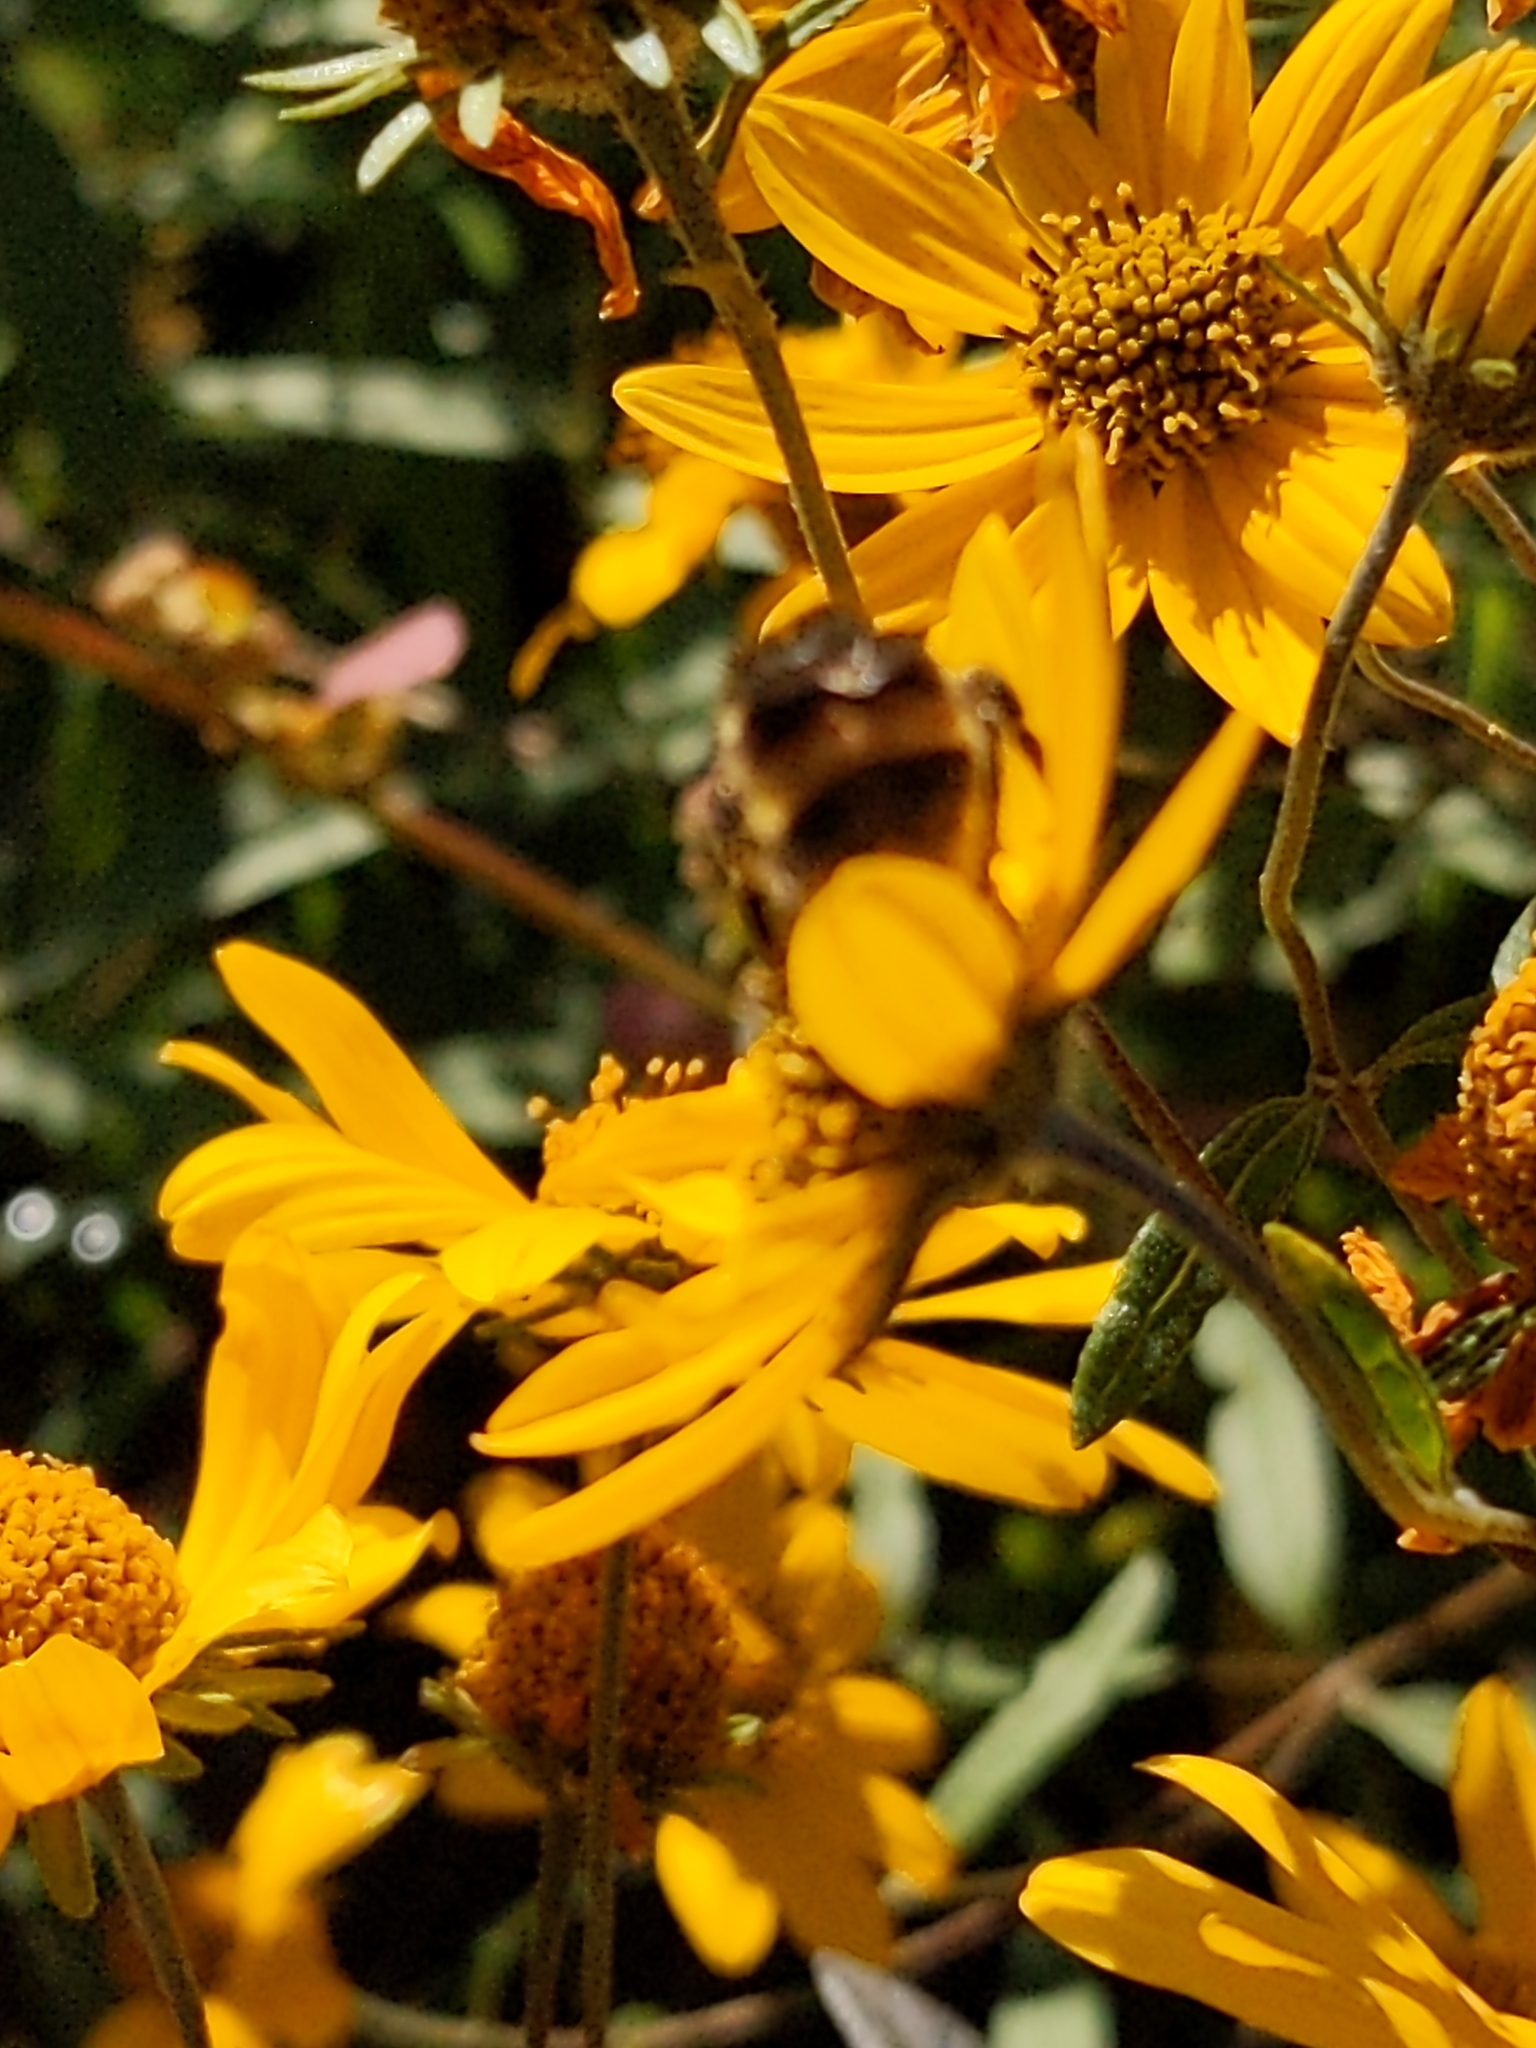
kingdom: Animalia
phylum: Arthropoda
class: Insecta
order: Hymenoptera
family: Apidae
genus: Bombus
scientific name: Bombus occidentalis
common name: Western bumble bee
